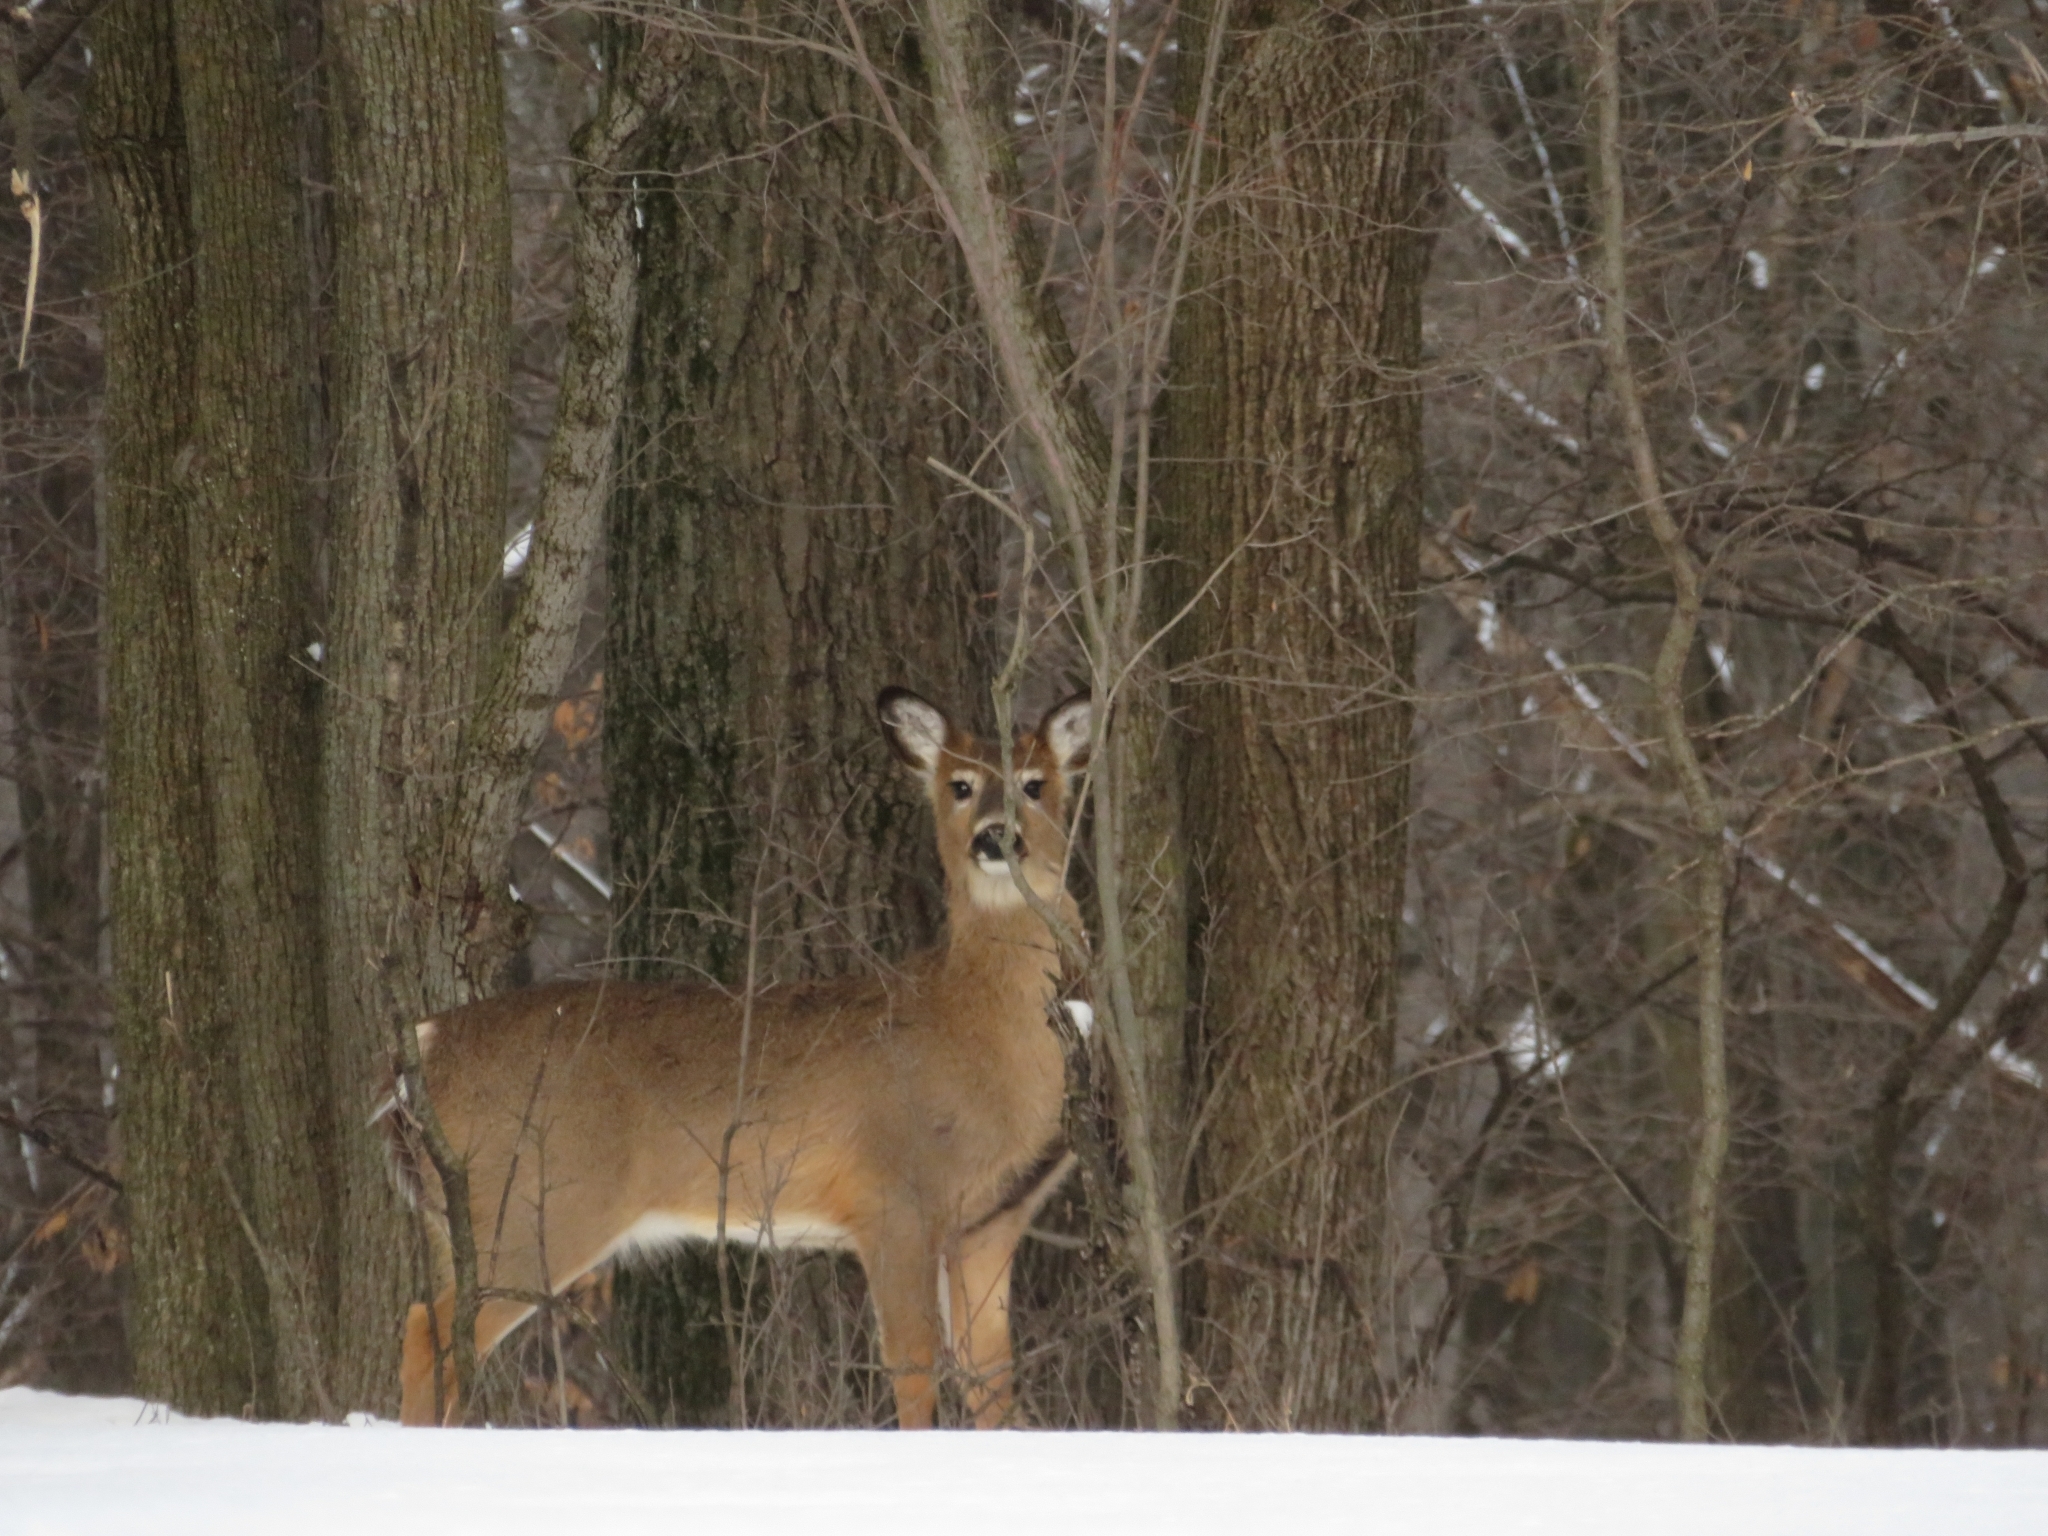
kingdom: Animalia
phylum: Chordata
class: Mammalia
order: Artiodactyla
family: Cervidae
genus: Odocoileus
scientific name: Odocoileus virginianus
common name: White-tailed deer
